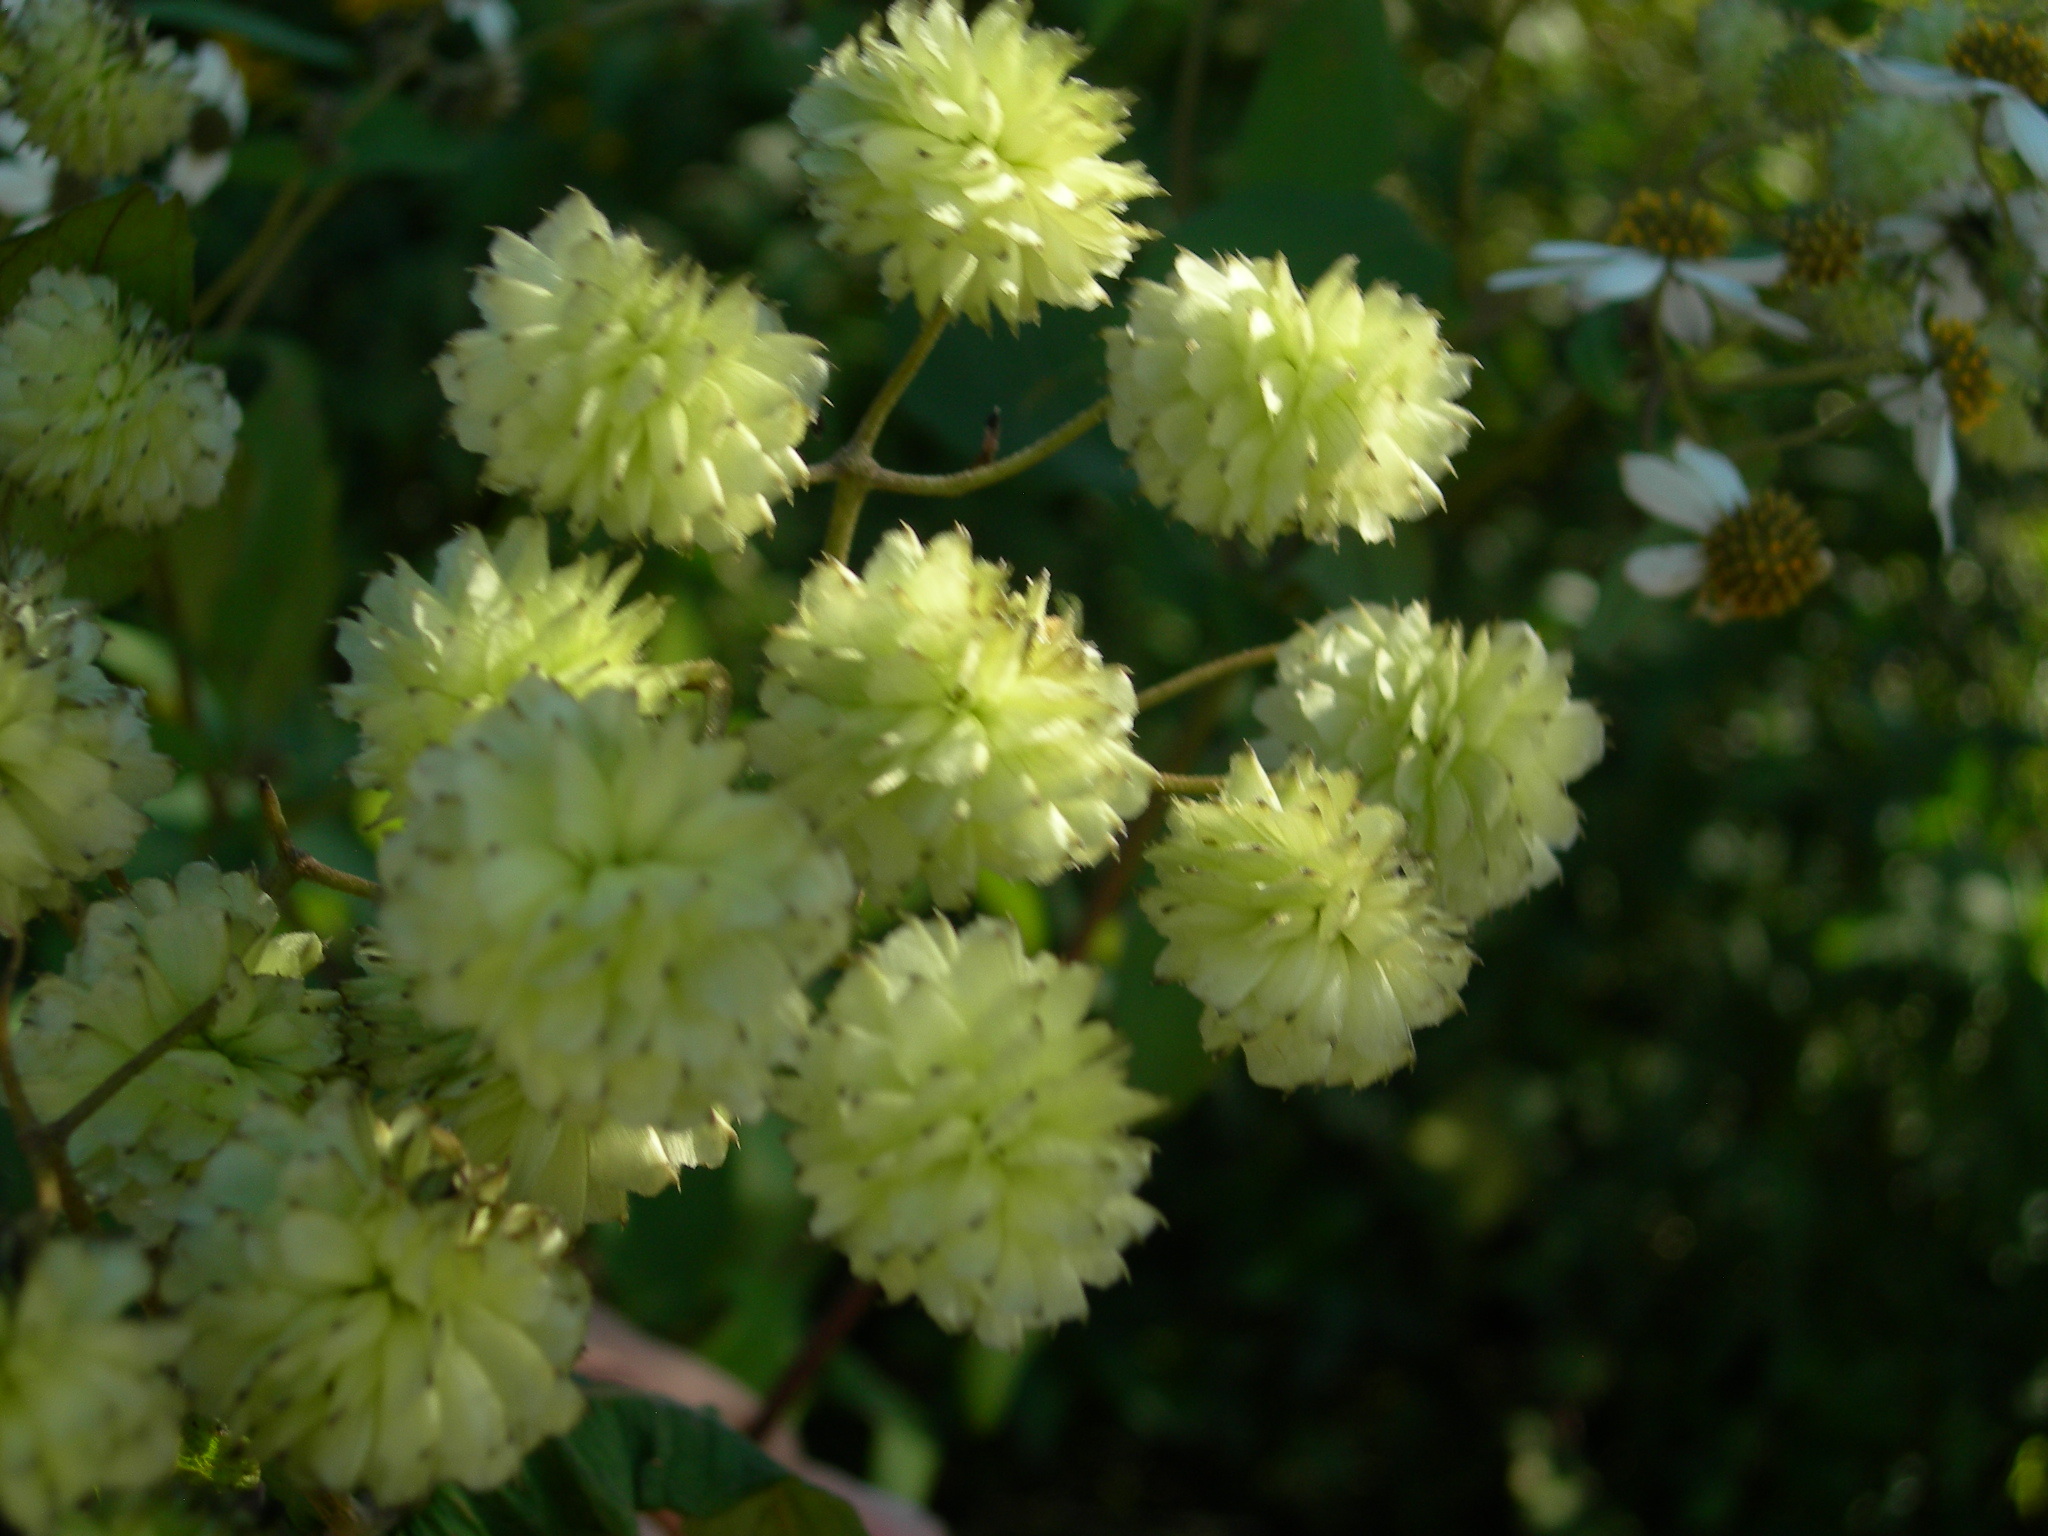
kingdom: Plantae
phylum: Tracheophyta
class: Magnoliopsida
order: Asterales
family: Asteraceae
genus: Montanoa
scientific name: Montanoa pteropoda
